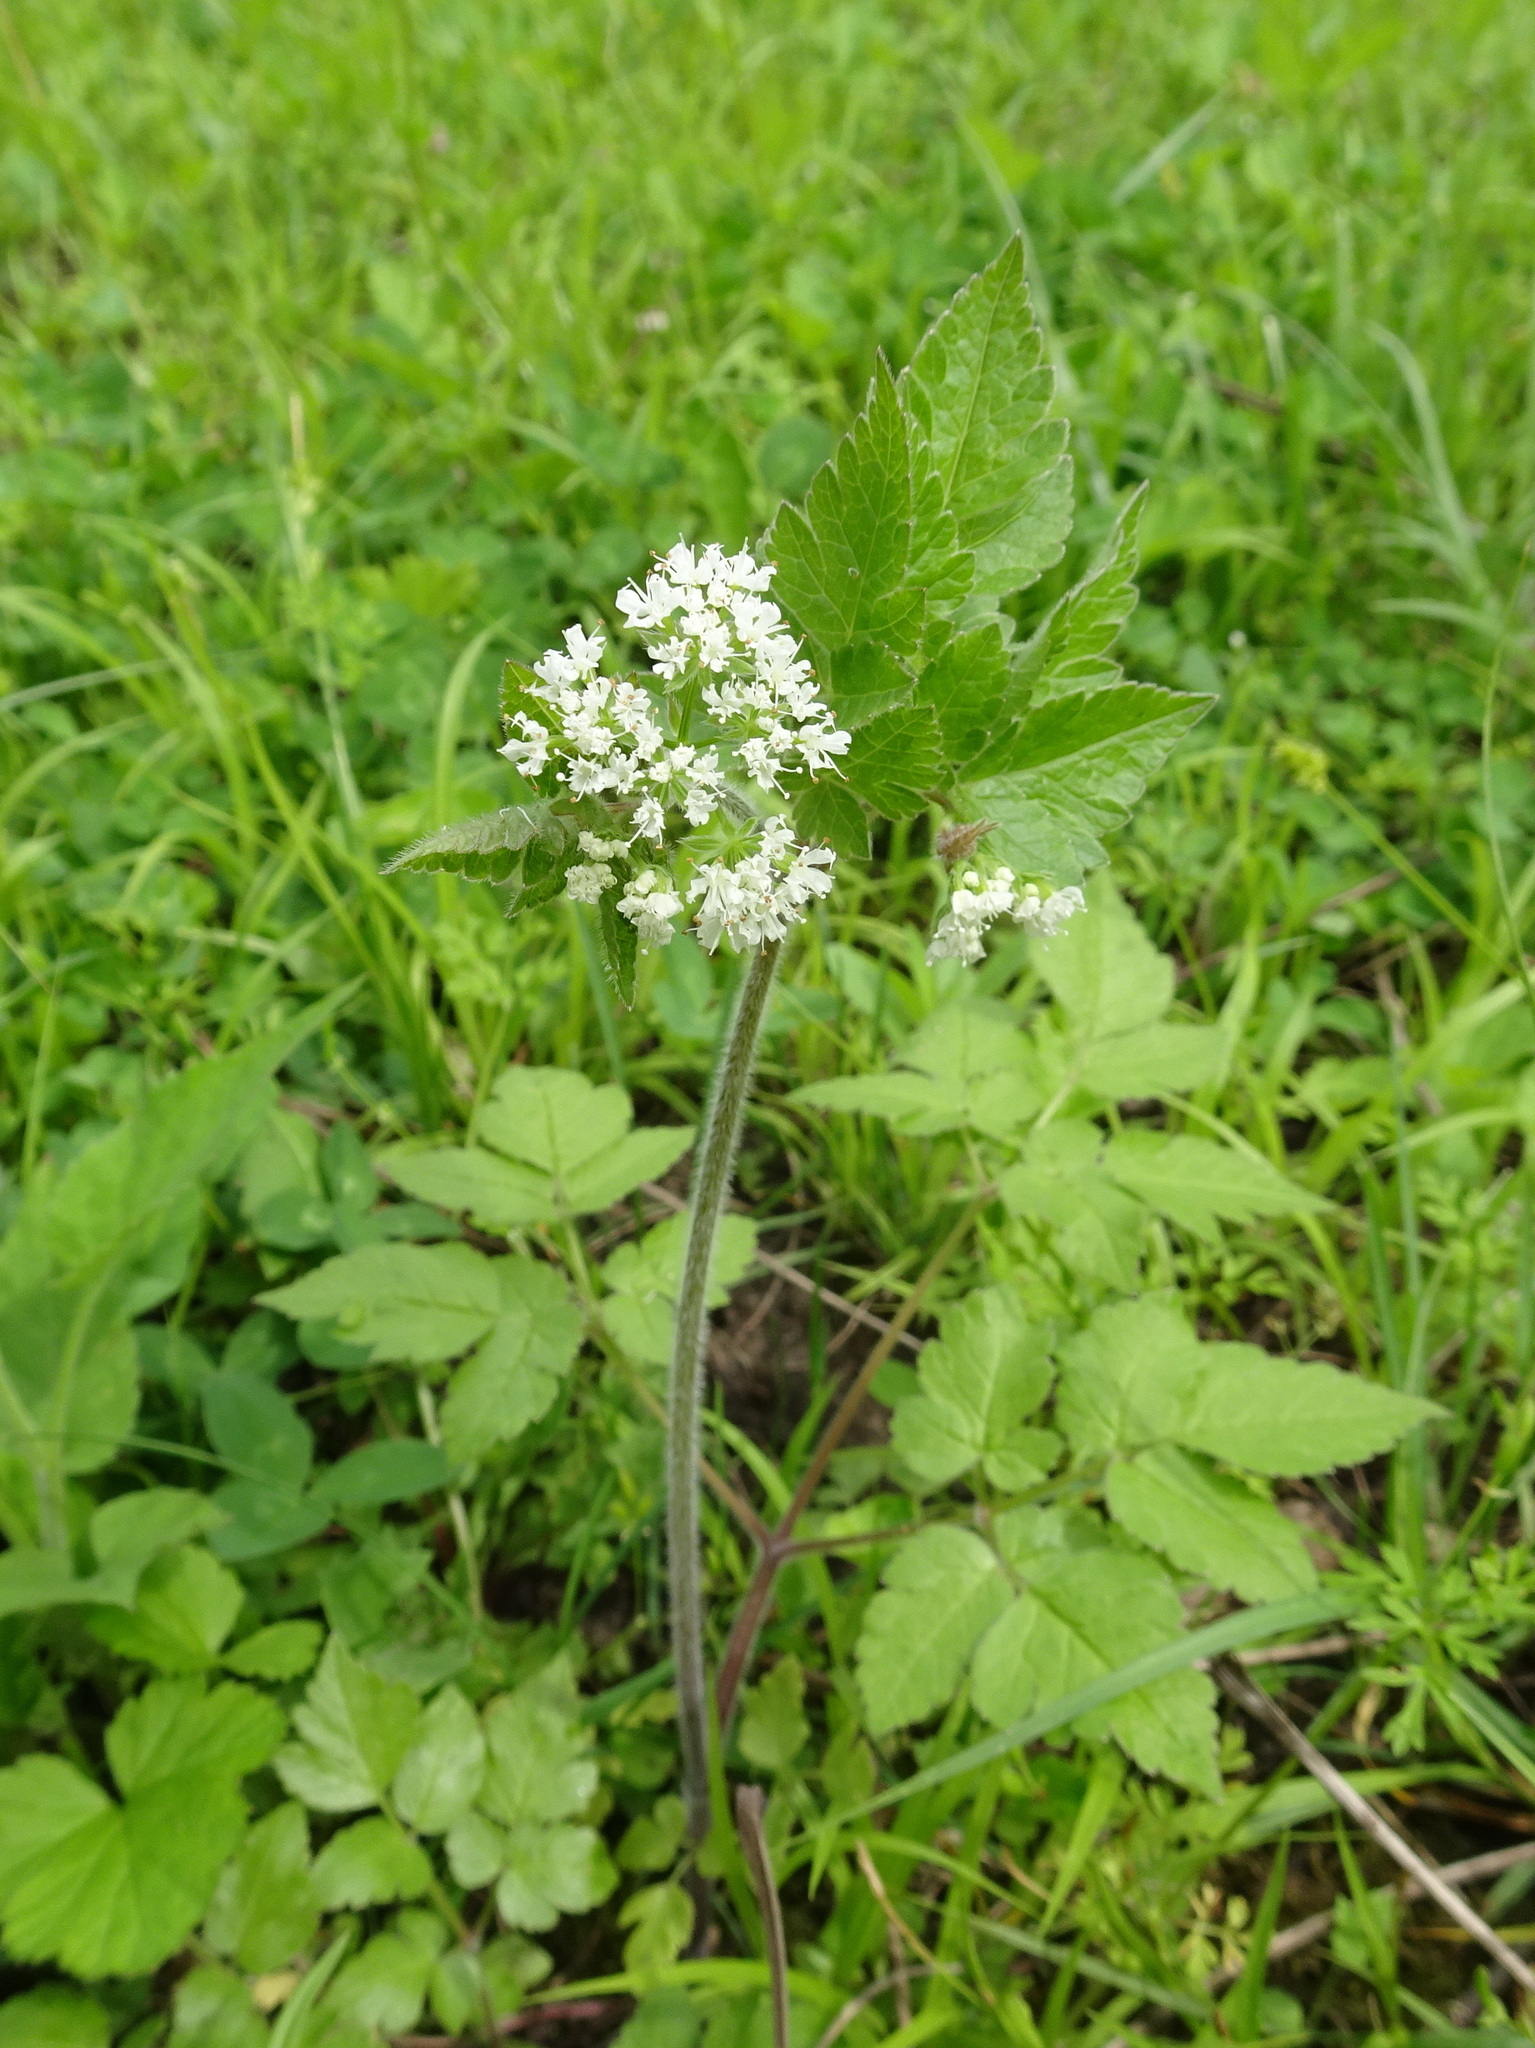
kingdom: Plantae
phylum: Tracheophyta
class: Magnoliopsida
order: Apiales
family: Apiaceae
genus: Osmorhiza
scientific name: Osmorhiza longistylis
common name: Smooth sweet cicely
